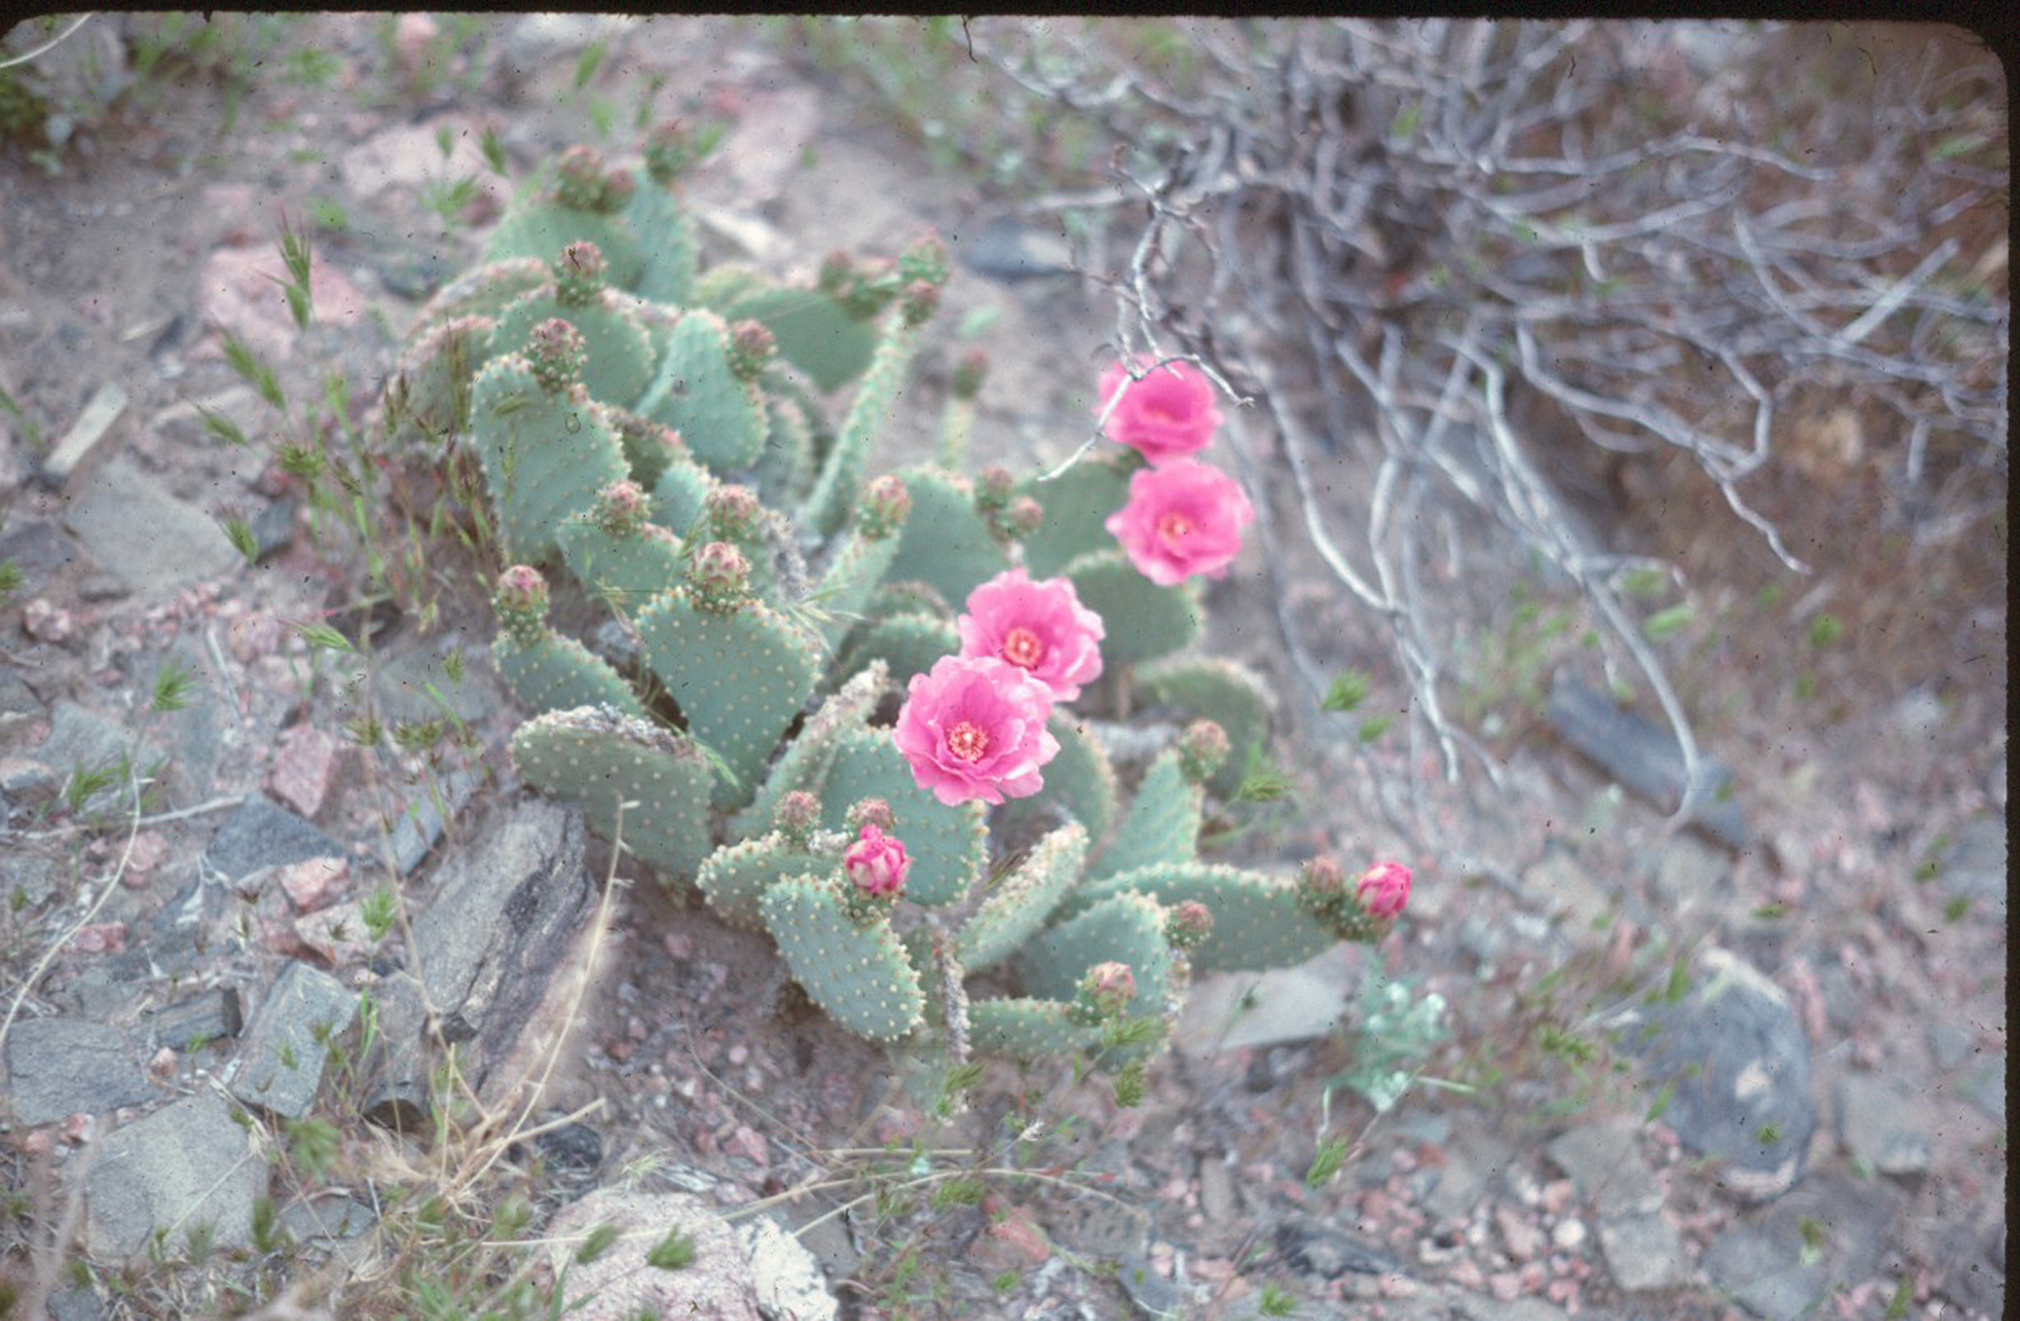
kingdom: Plantae
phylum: Tracheophyta
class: Magnoliopsida
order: Caryophyllales
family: Cactaceae
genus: Opuntia
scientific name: Opuntia basilaris
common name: Beavertail prickly-pear
